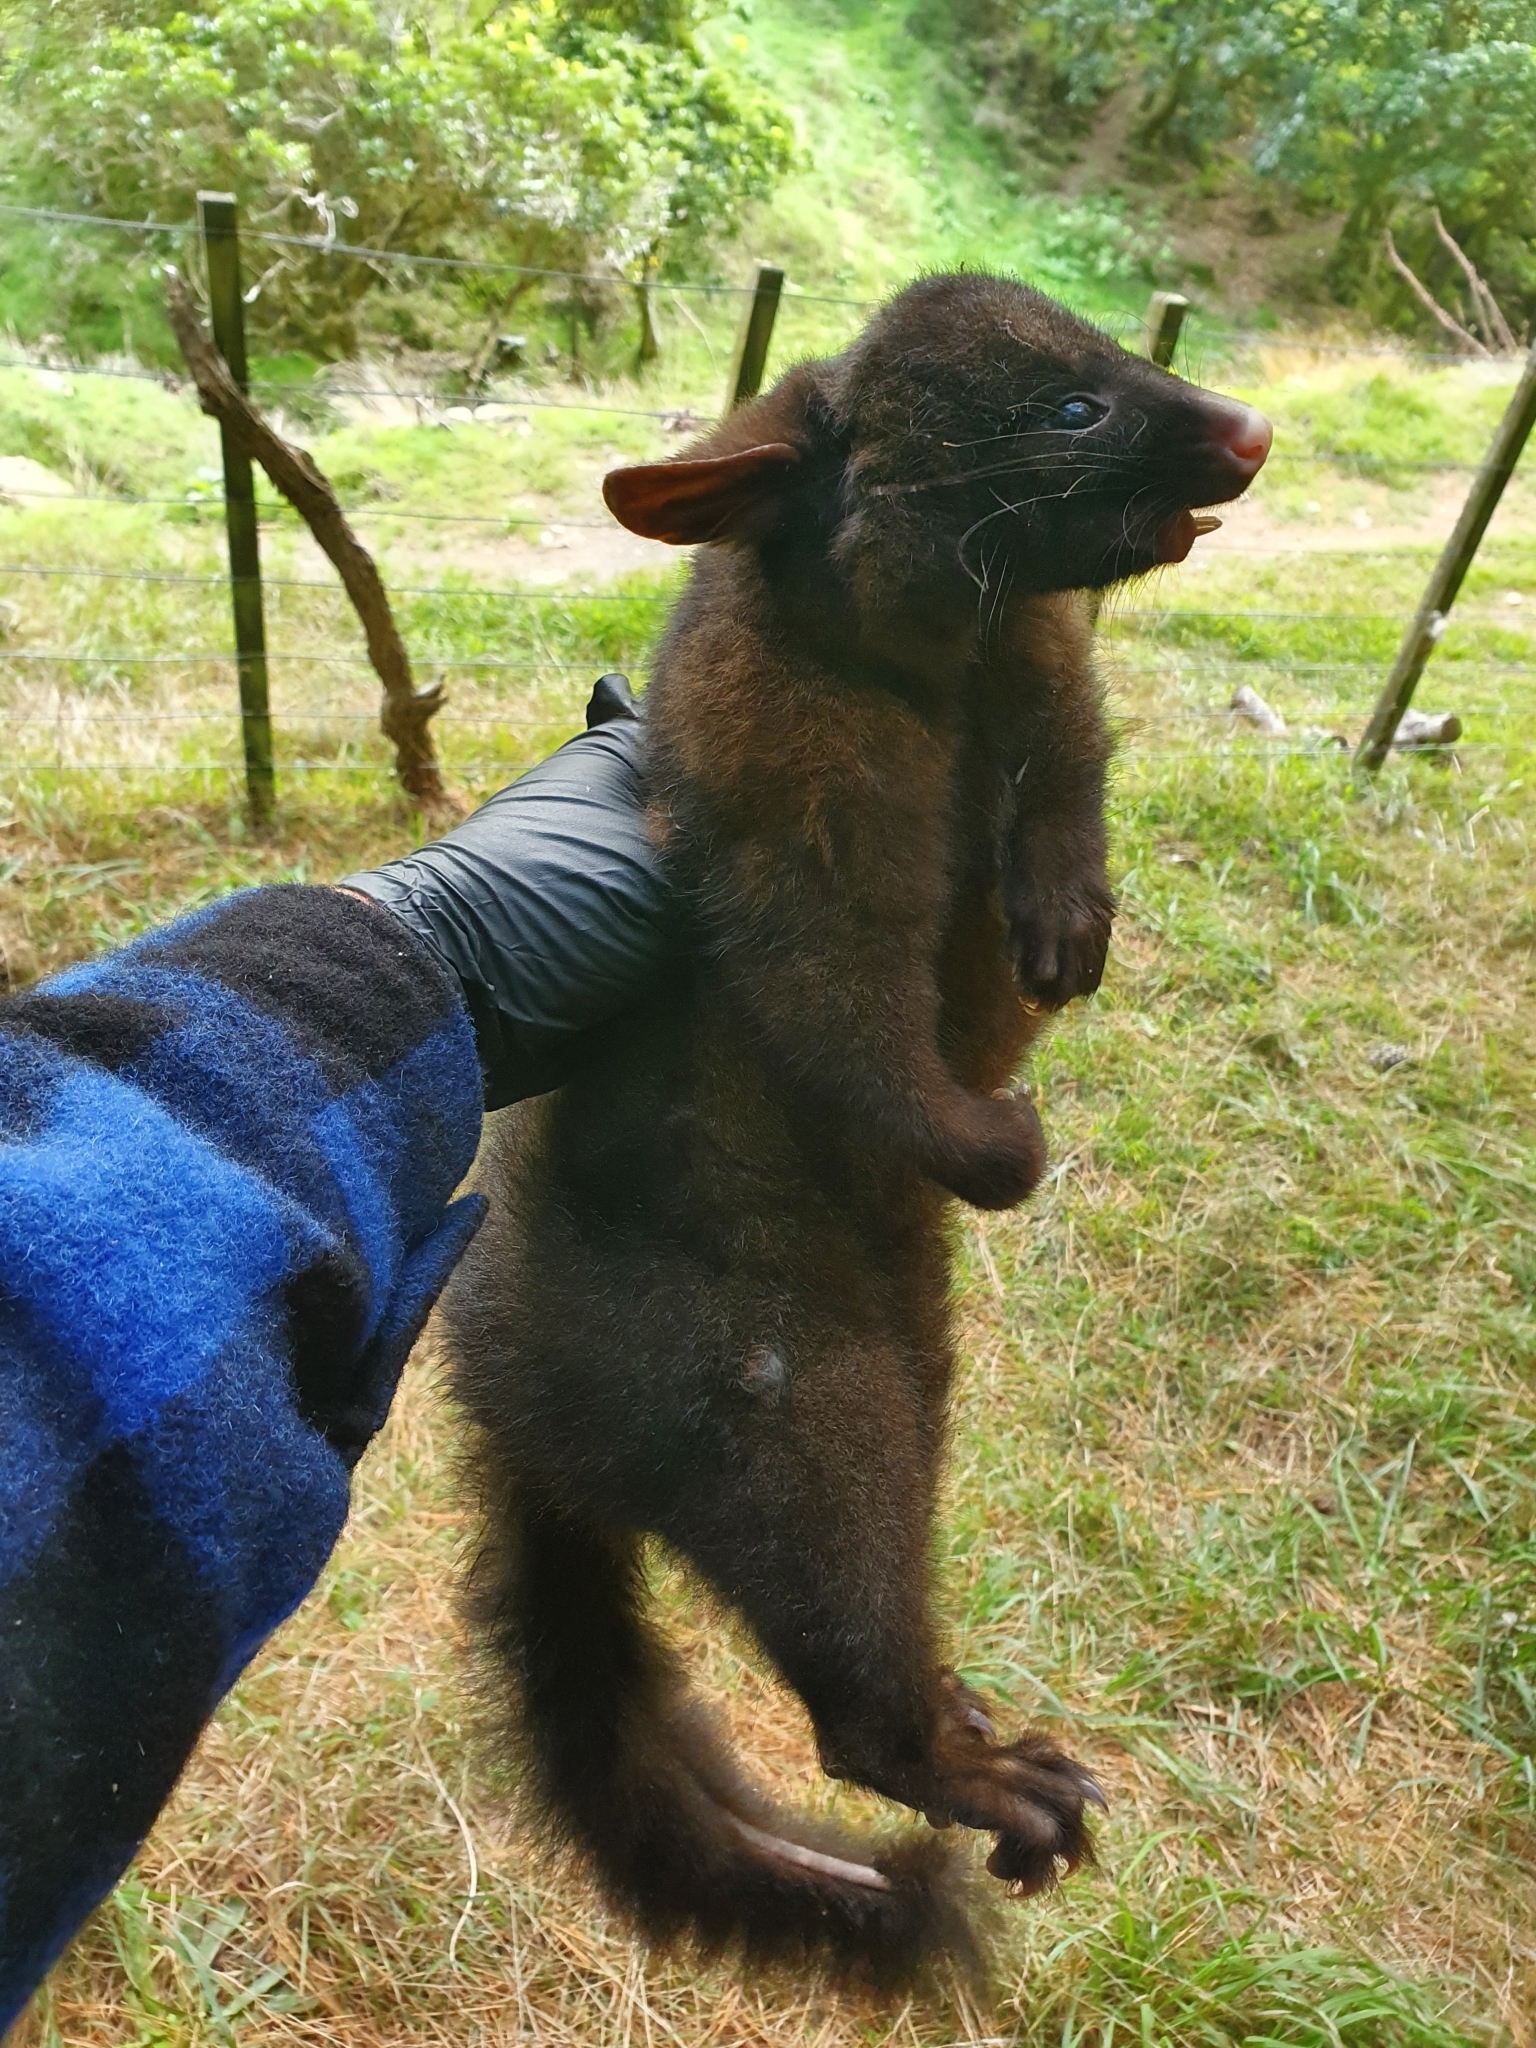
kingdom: Animalia
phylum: Chordata
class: Mammalia
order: Diprotodontia
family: Phalangeridae
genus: Trichosurus
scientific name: Trichosurus vulpecula
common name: Common brushtail
